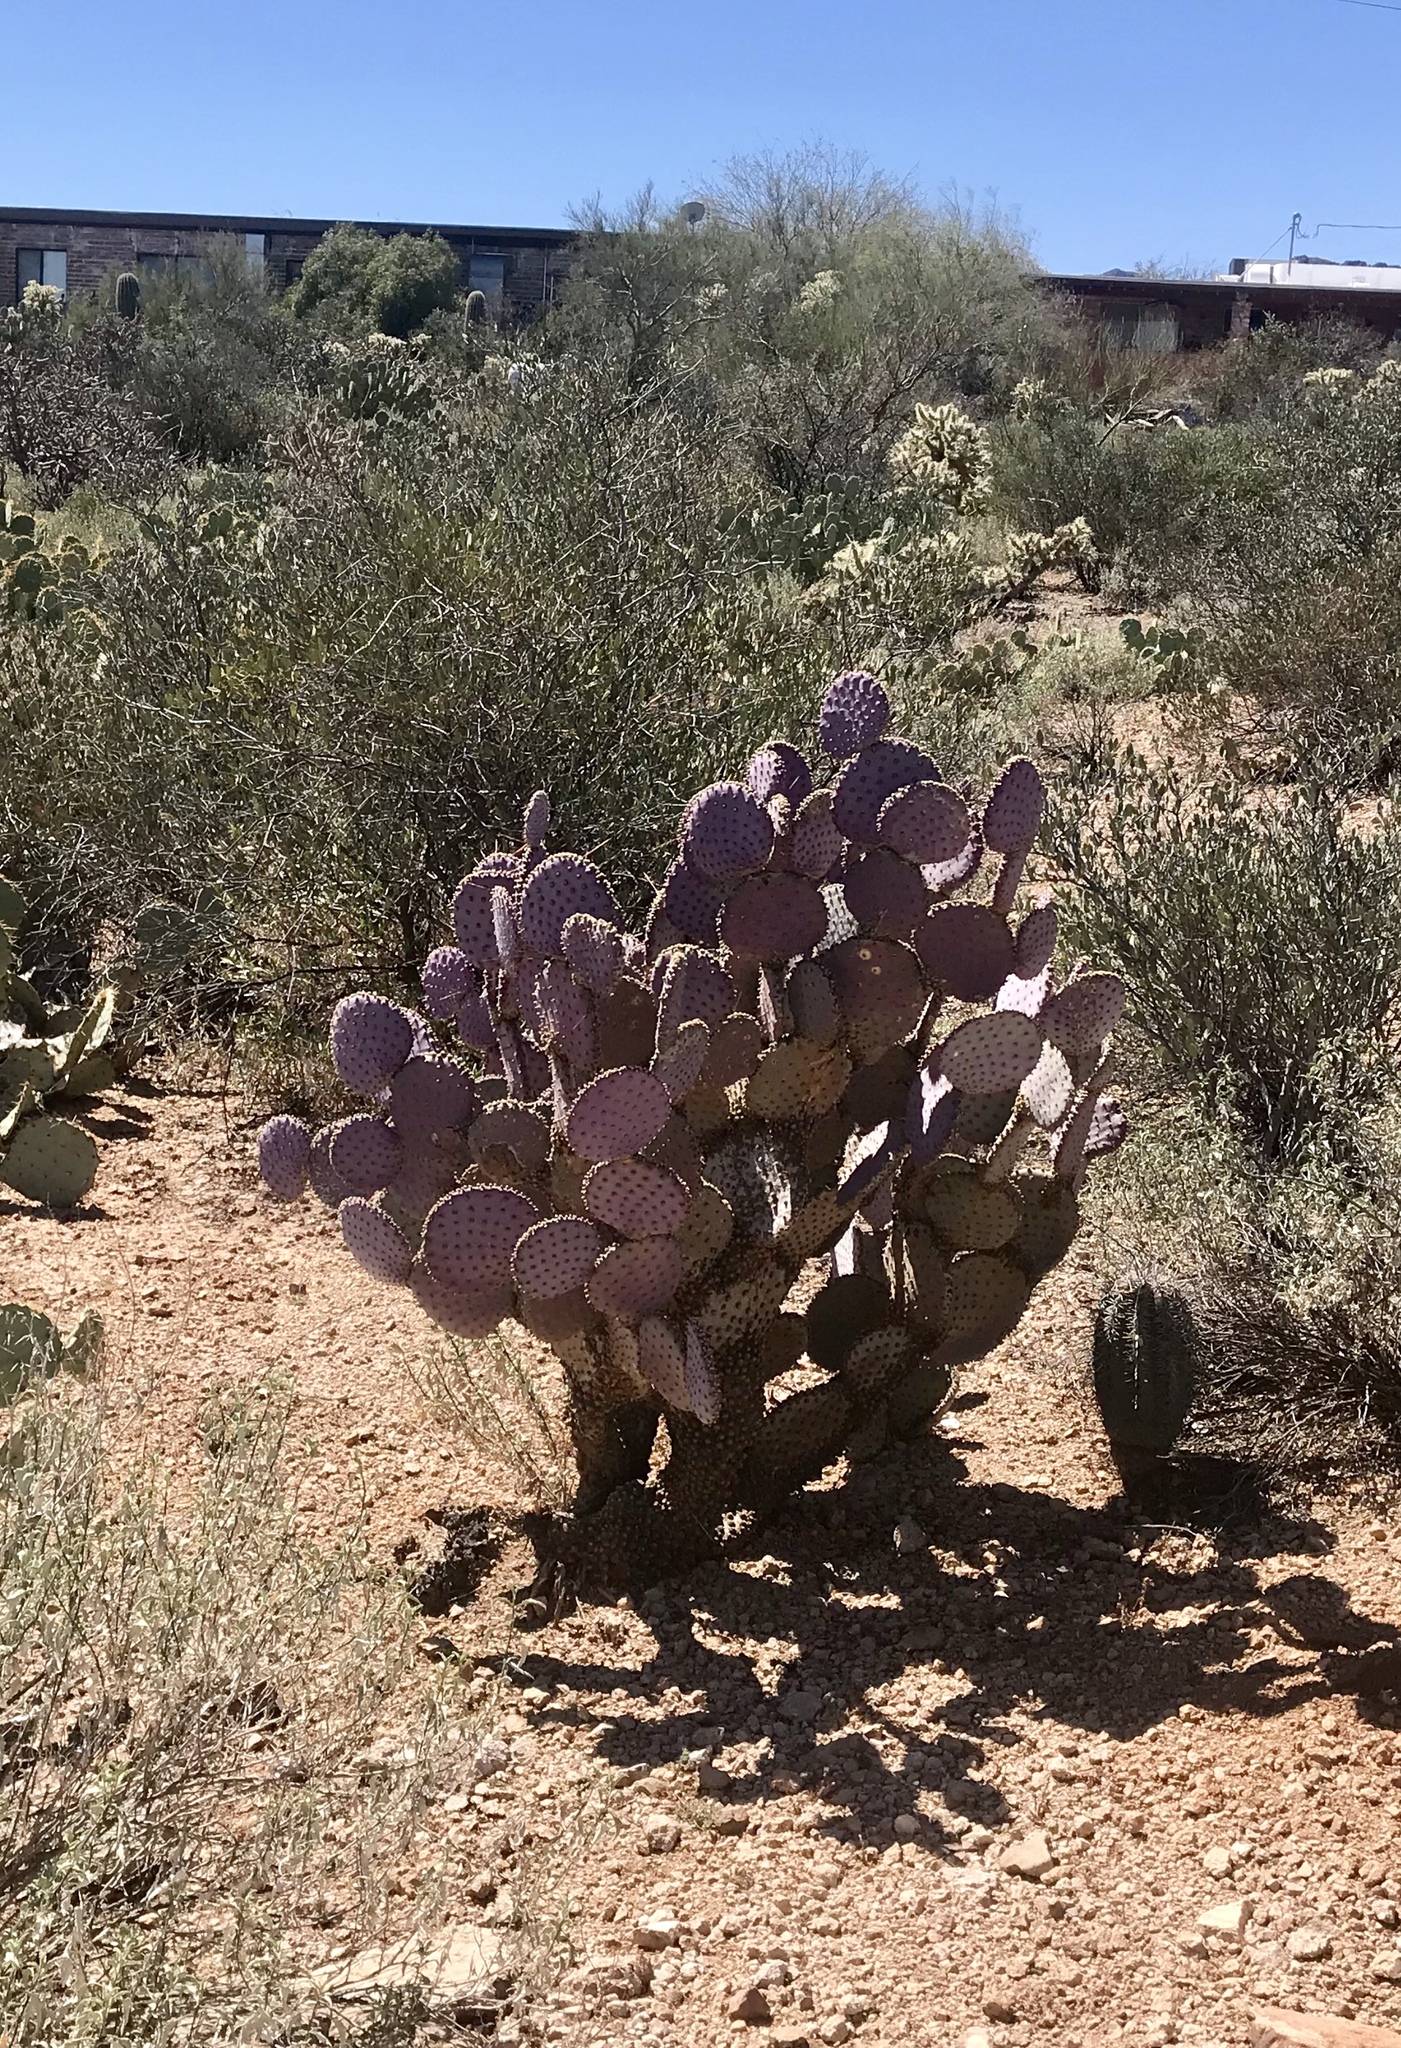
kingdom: Plantae
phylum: Tracheophyta
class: Magnoliopsida
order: Caryophyllales
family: Cactaceae
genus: Opuntia
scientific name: Opuntia gosseliniana
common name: Violet prickly-pear
